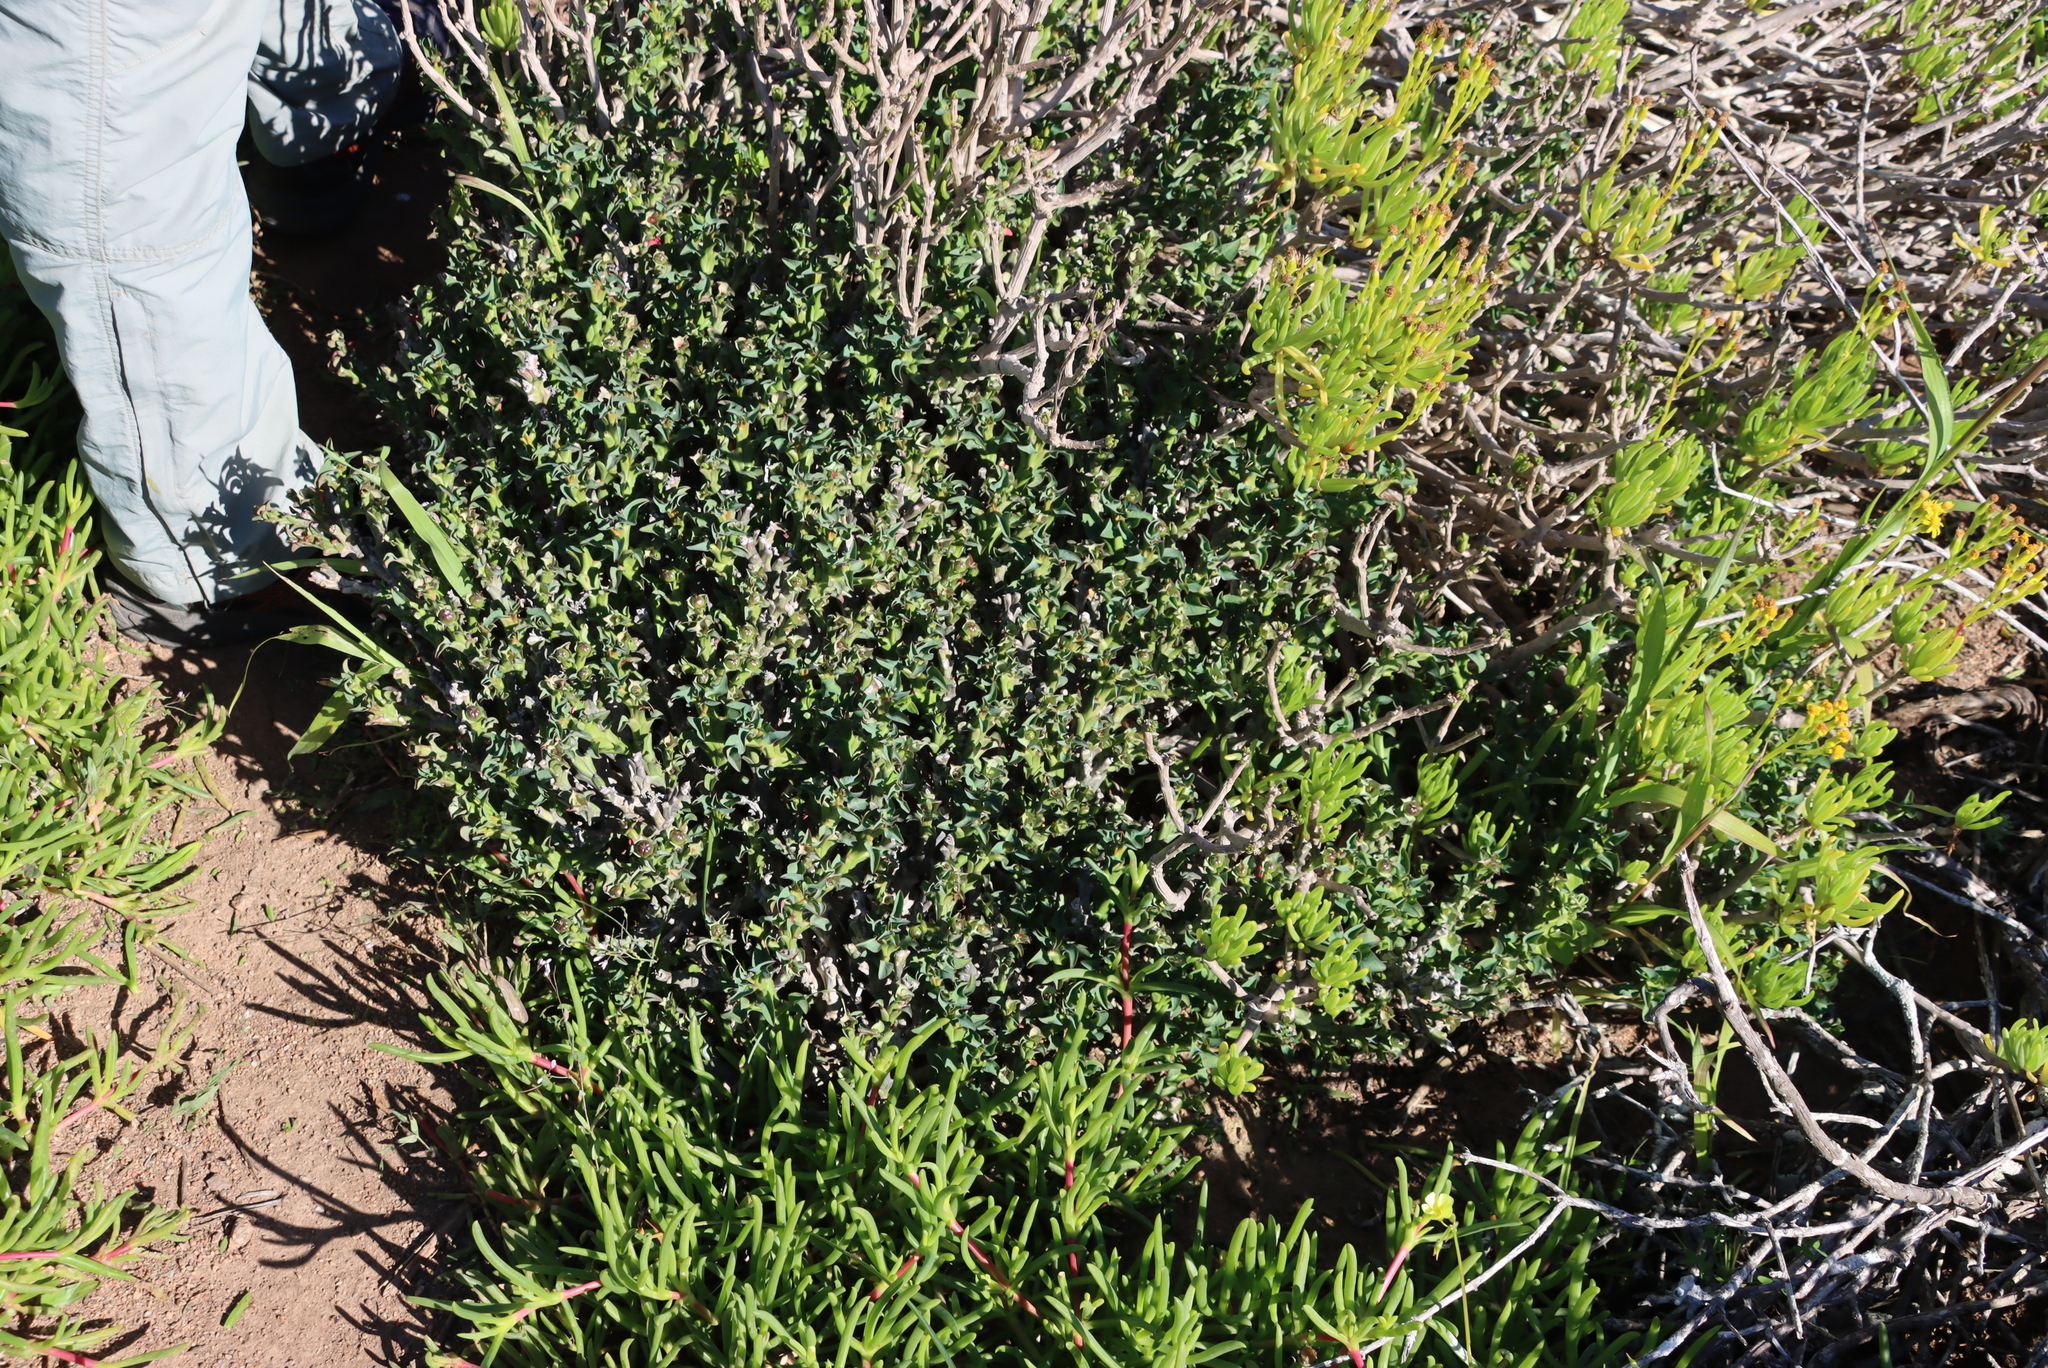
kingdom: Plantae
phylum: Tracheophyta
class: Magnoliopsida
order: Malpighiales
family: Euphorbiaceae
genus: Euphorbia
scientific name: Euphorbia hamata
